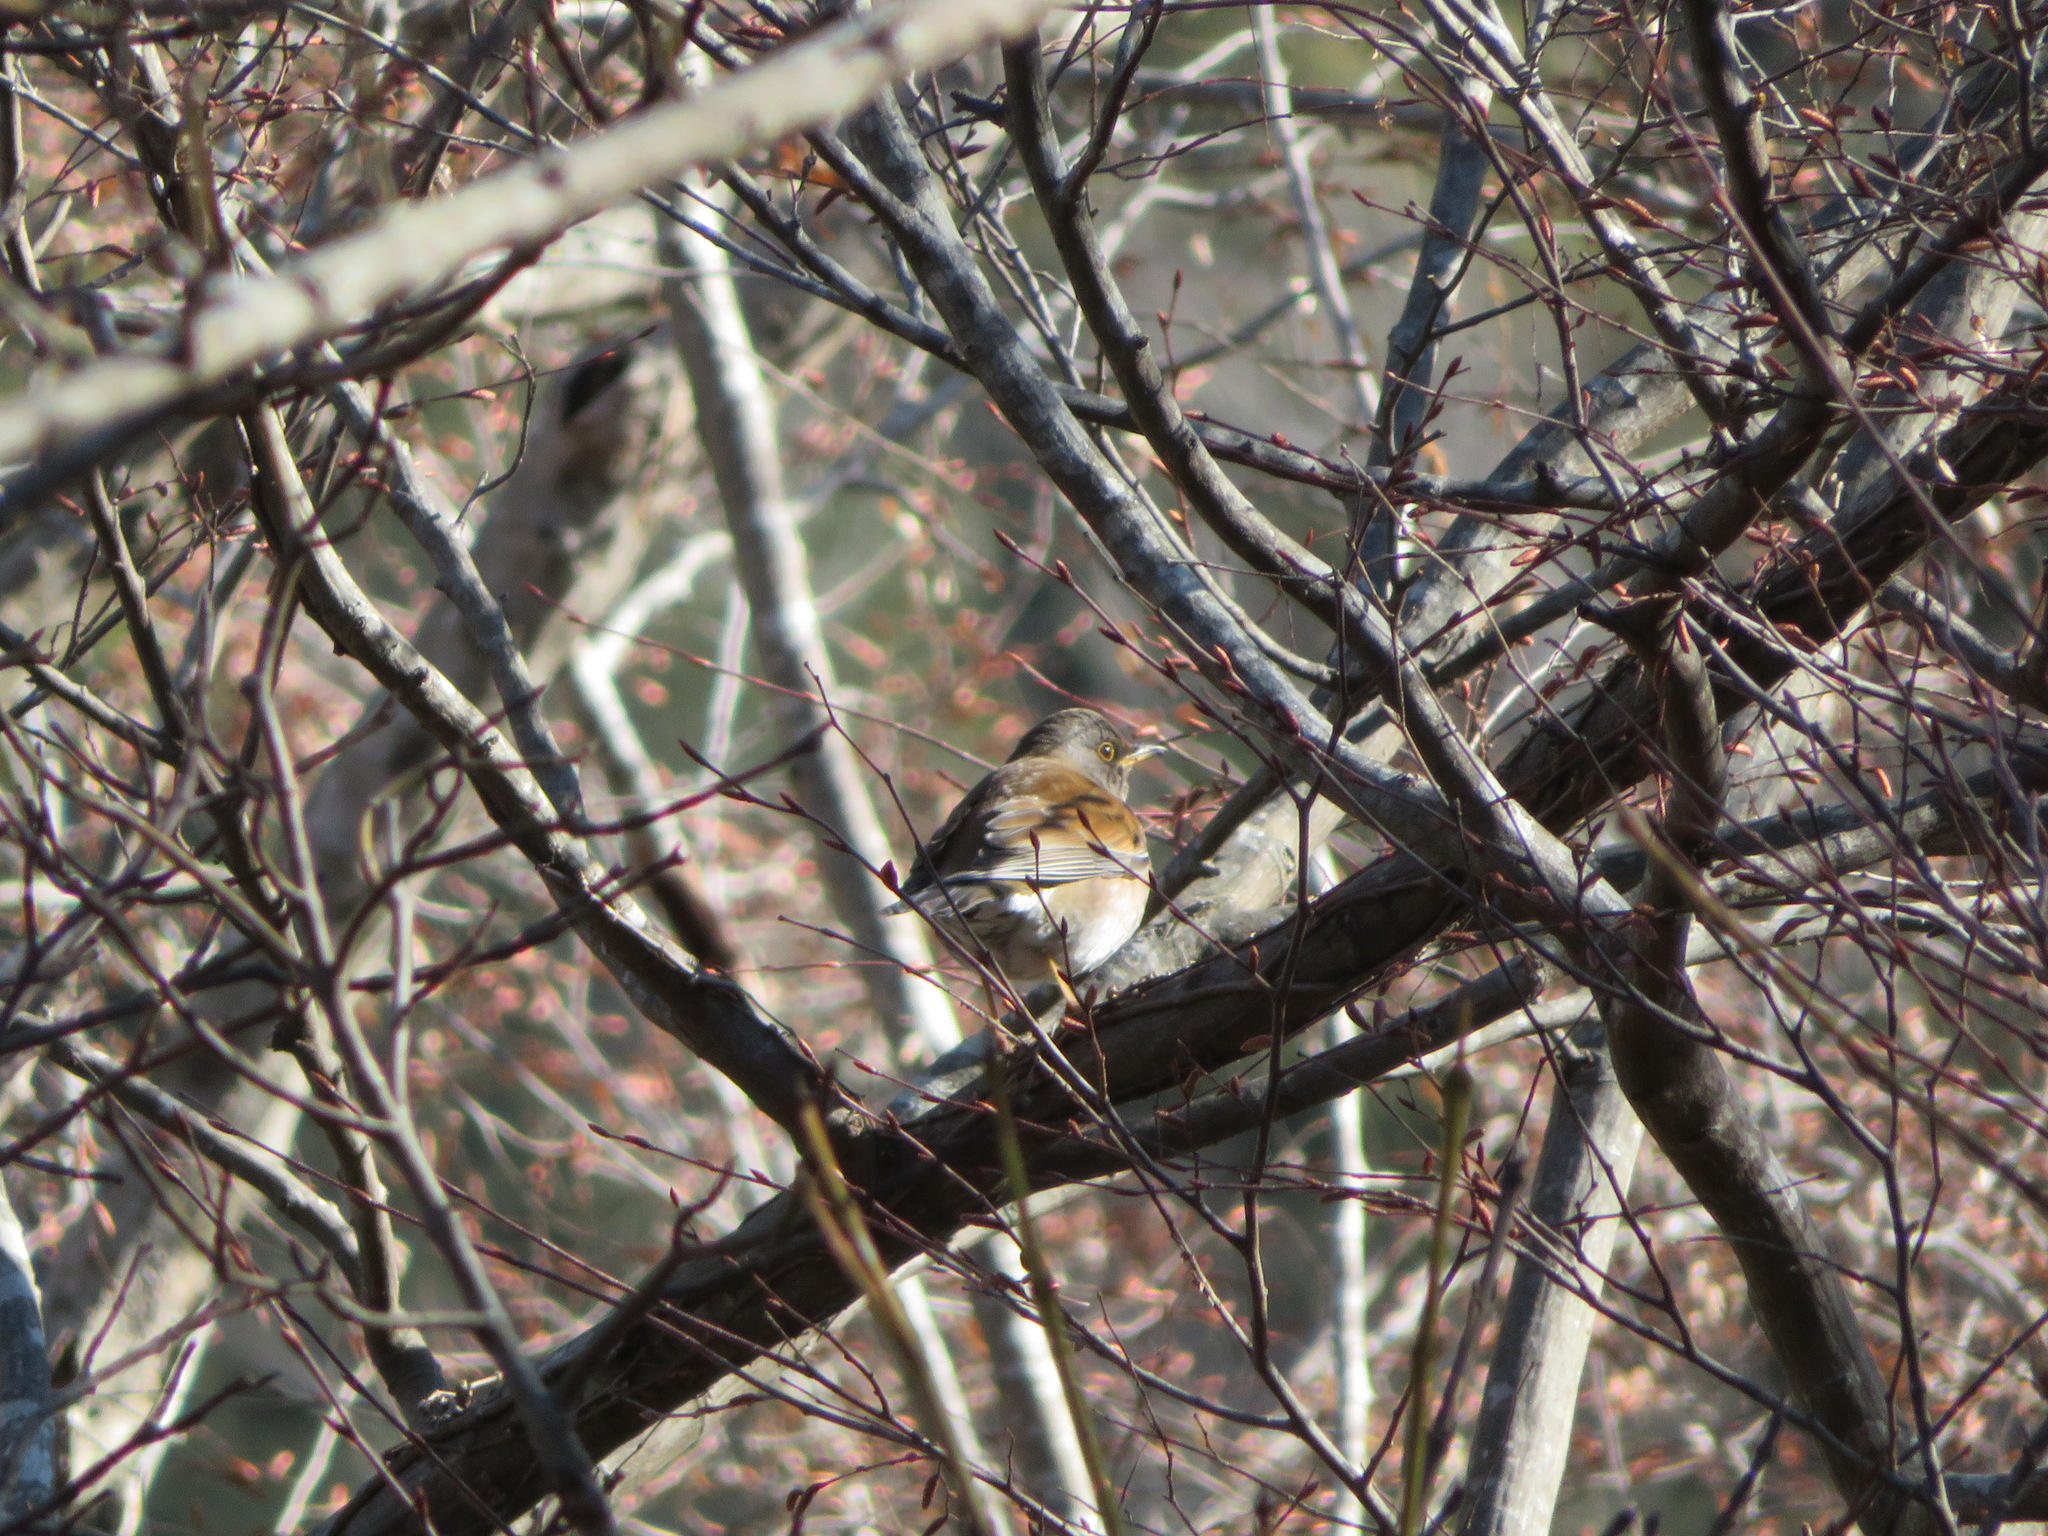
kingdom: Animalia
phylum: Chordata
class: Aves
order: Passeriformes
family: Turdidae
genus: Turdus
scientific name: Turdus pallidus
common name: Pale thrush
